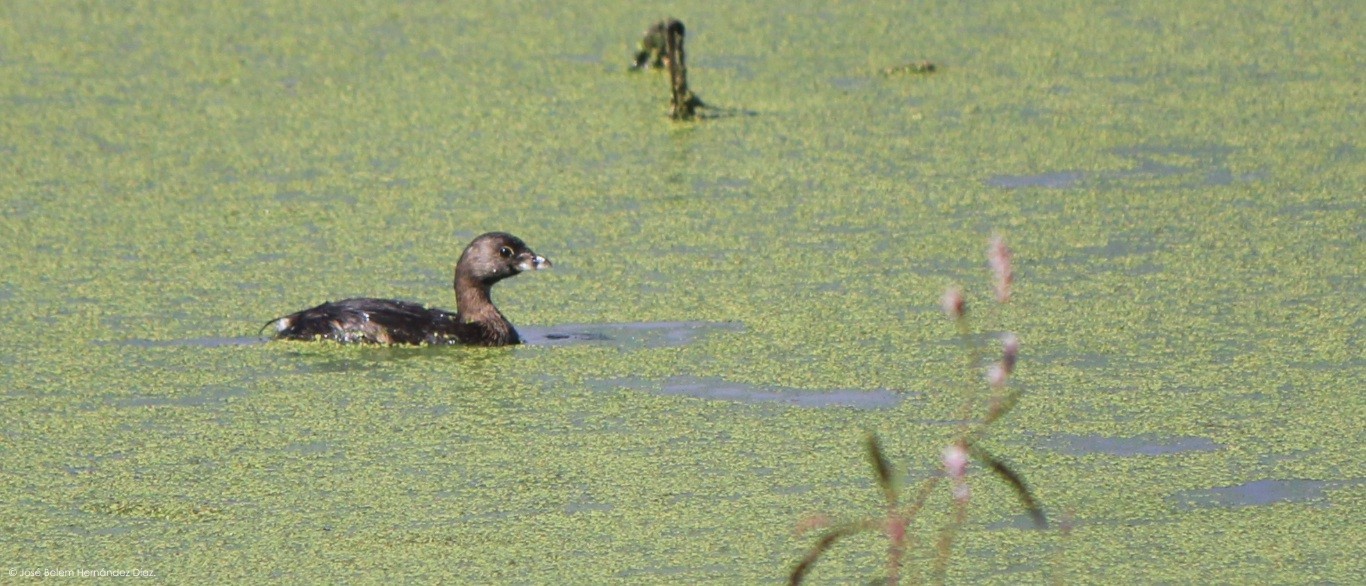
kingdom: Animalia
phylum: Chordata
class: Aves
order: Podicipediformes
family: Podicipedidae
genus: Podilymbus
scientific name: Podilymbus podiceps
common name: Pied-billed grebe
